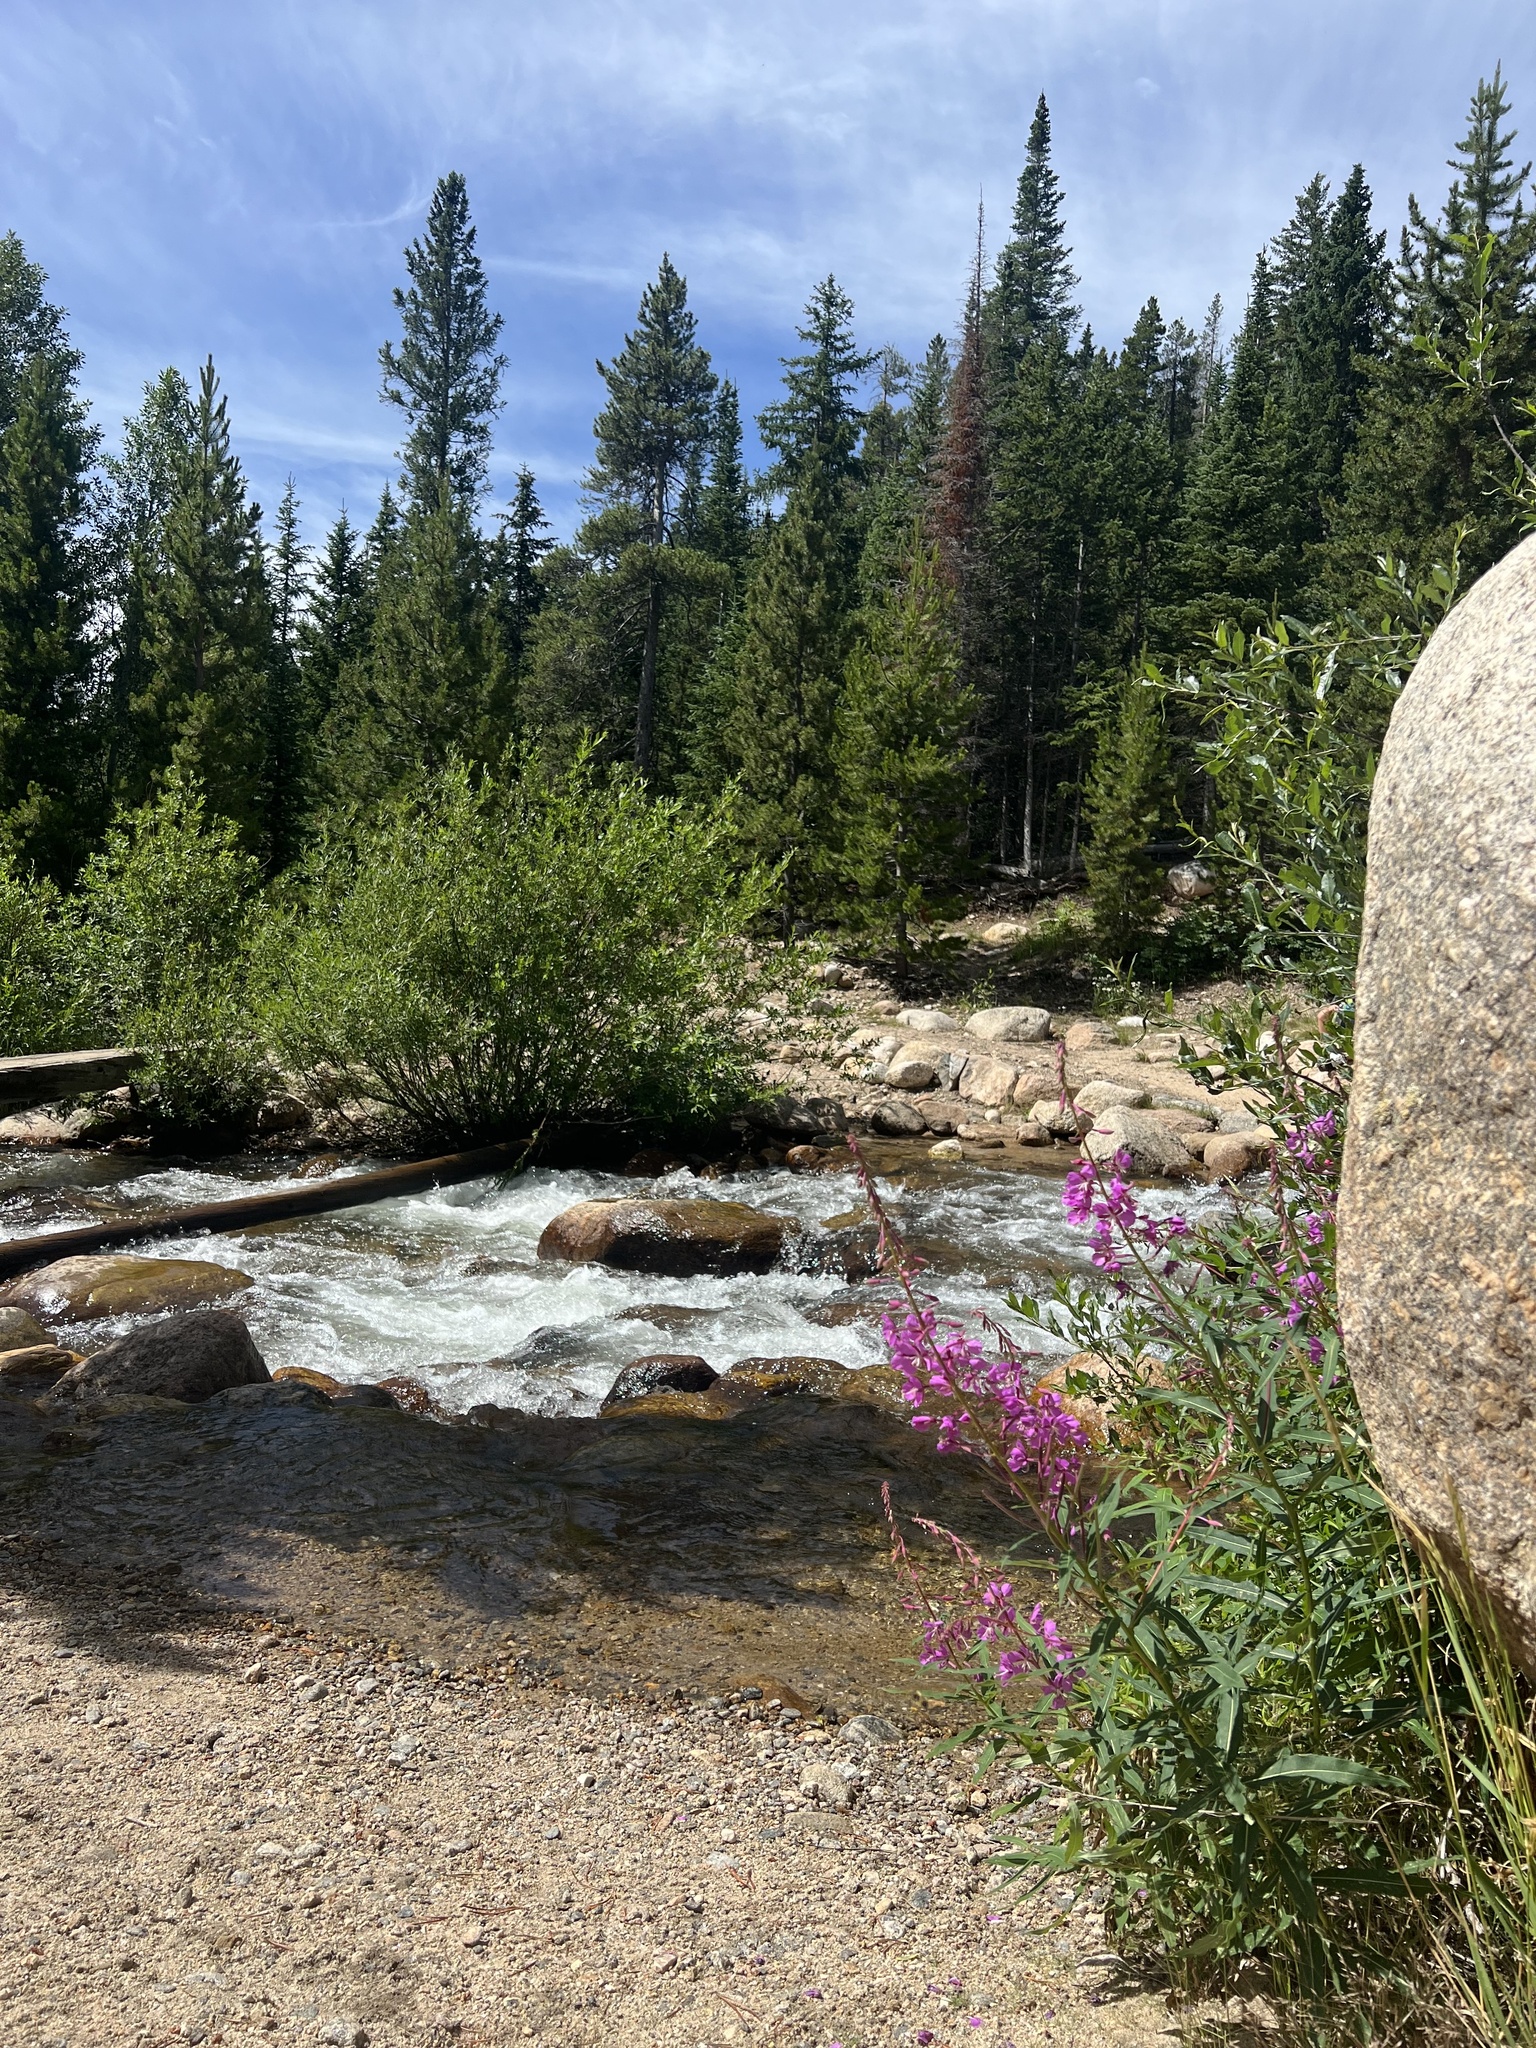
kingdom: Plantae
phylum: Tracheophyta
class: Magnoliopsida
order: Myrtales
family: Onagraceae
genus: Chamaenerion
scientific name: Chamaenerion angustifolium
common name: Fireweed
